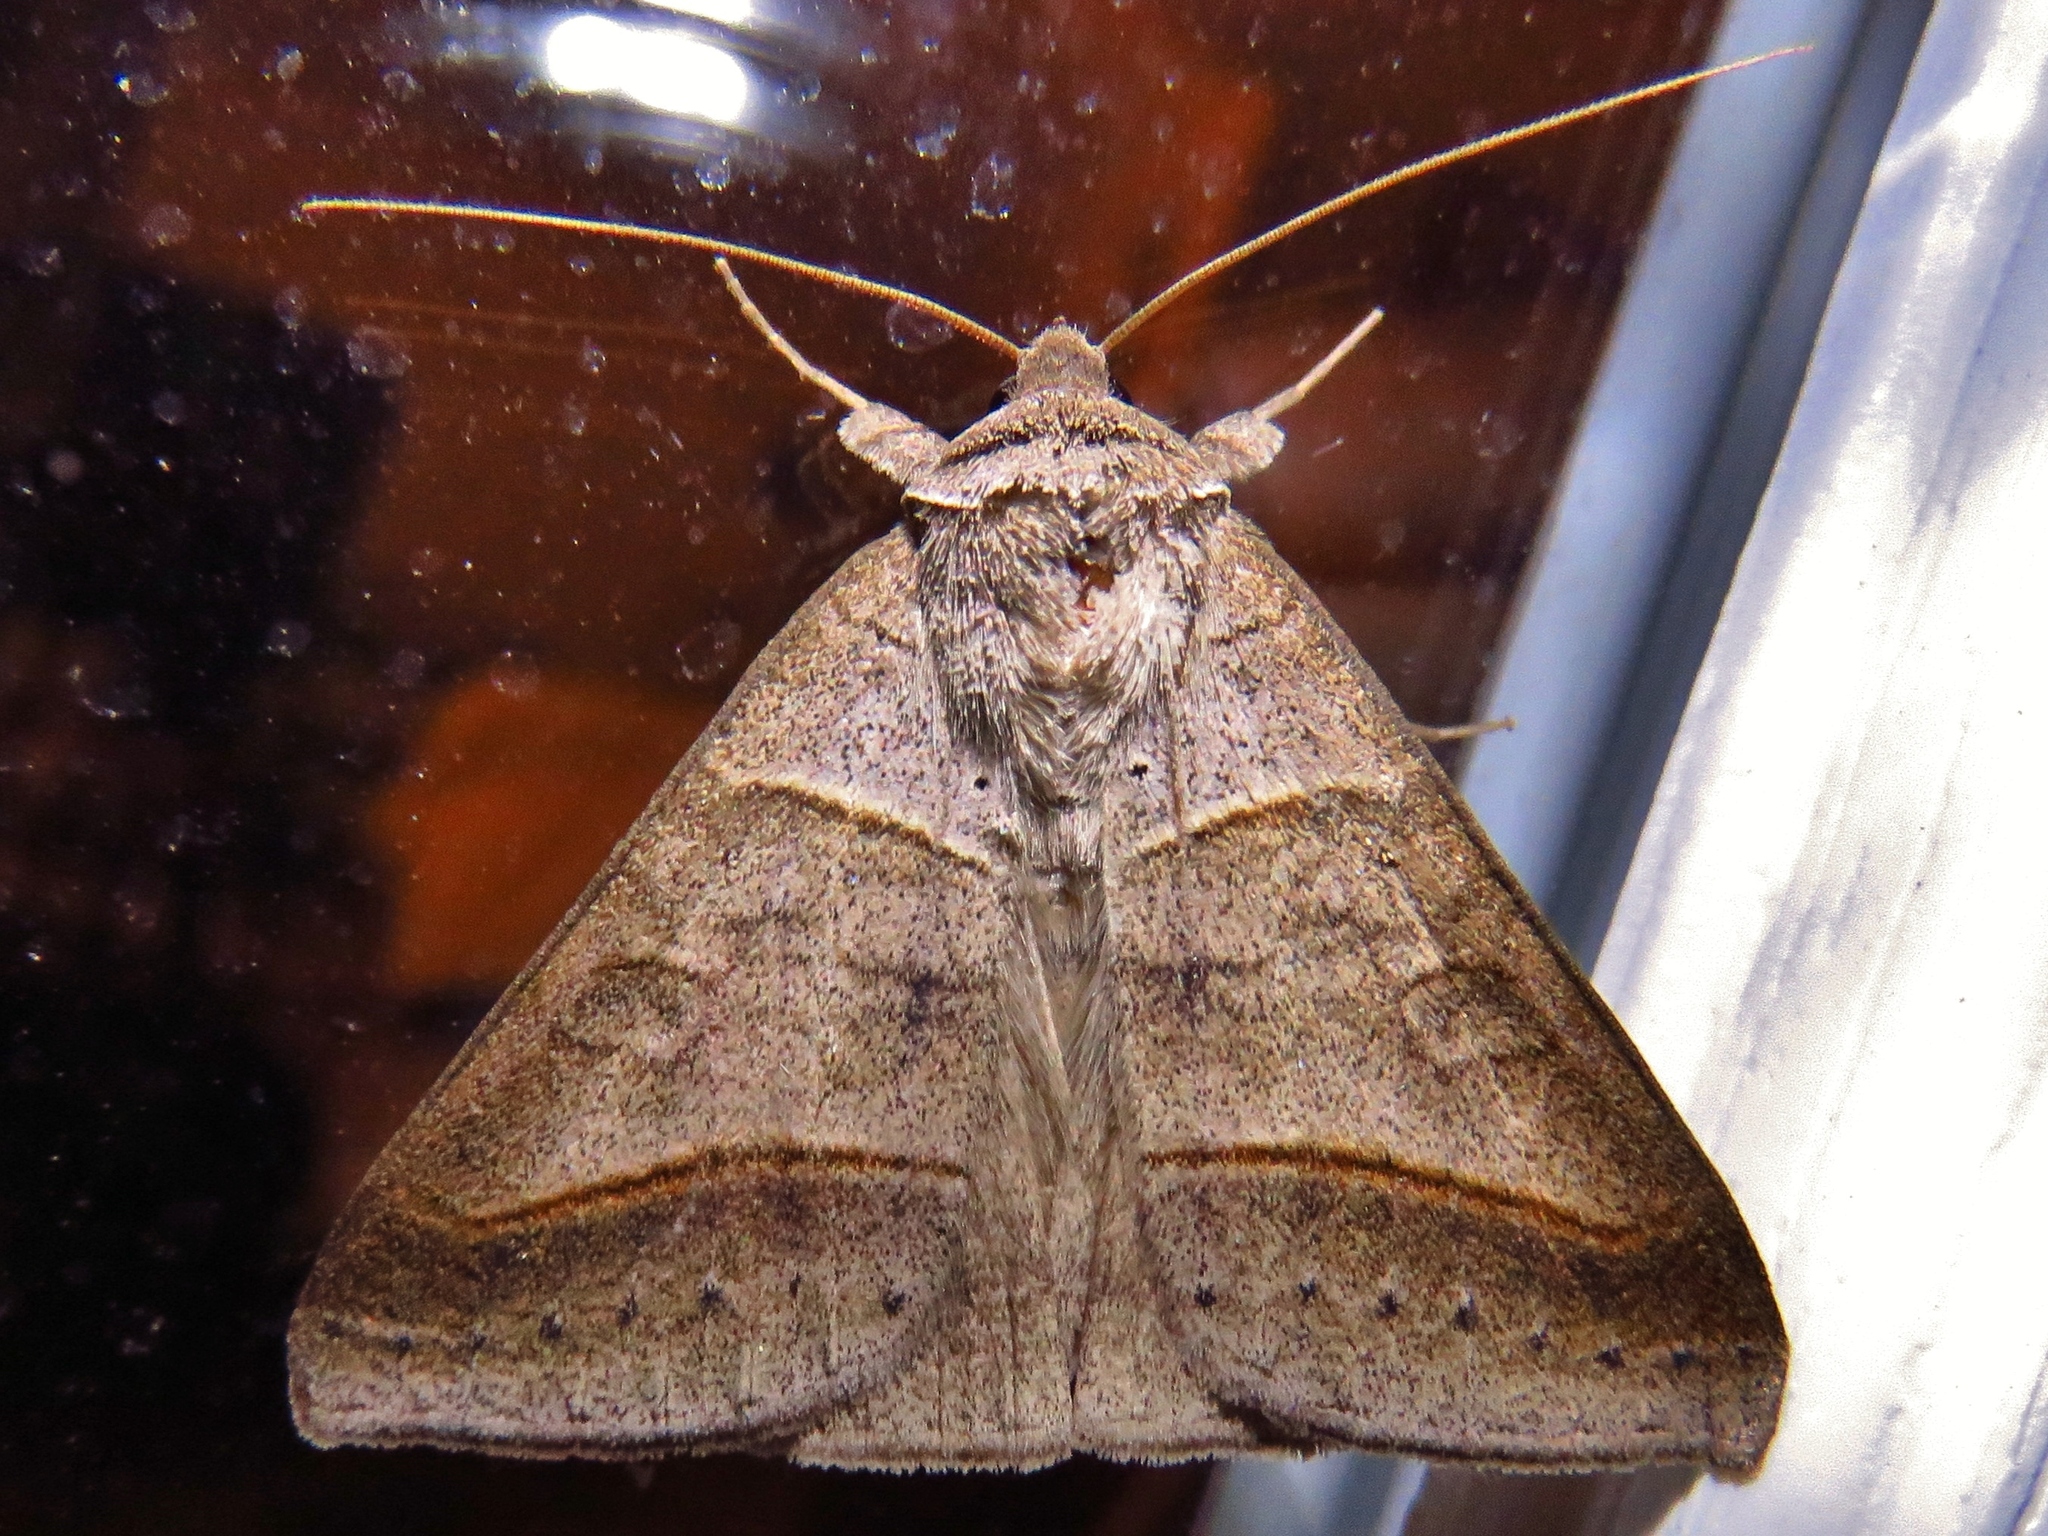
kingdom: Animalia
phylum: Arthropoda
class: Insecta
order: Lepidoptera
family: Erebidae
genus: Mocis
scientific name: Mocis texana
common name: Texas mocis moth
